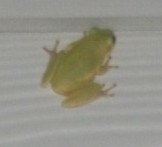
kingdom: Animalia
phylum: Chordata
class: Amphibia
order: Anura
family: Hylidae
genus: Dryophytes
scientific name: Dryophytes squirellus
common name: Squirrel treefrog
